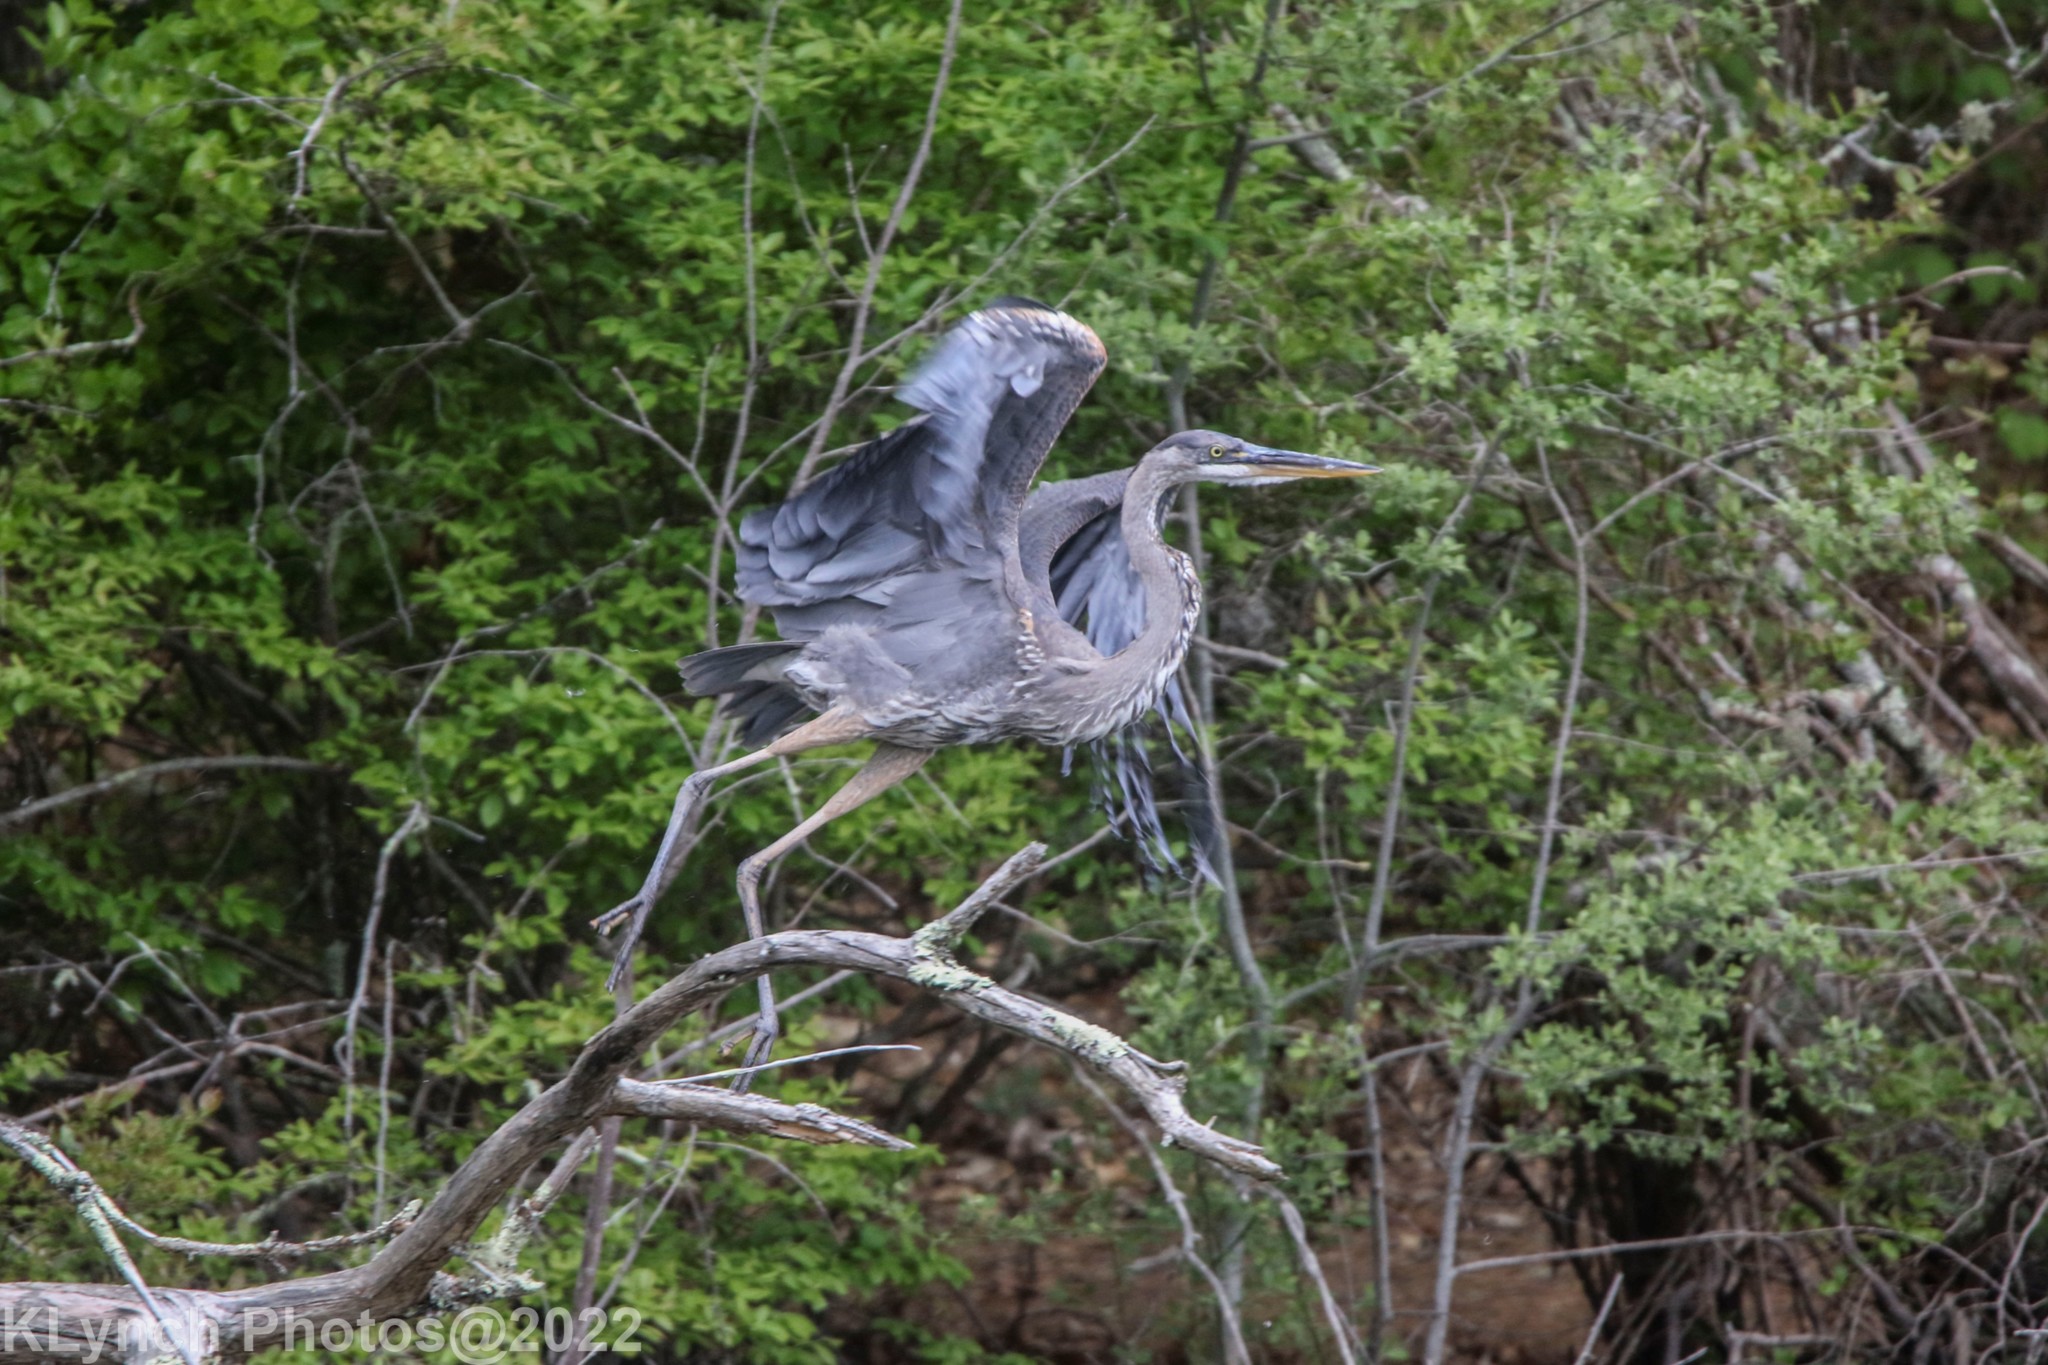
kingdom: Animalia
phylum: Chordata
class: Aves
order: Pelecaniformes
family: Ardeidae
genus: Ardea
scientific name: Ardea herodias
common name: Great blue heron
